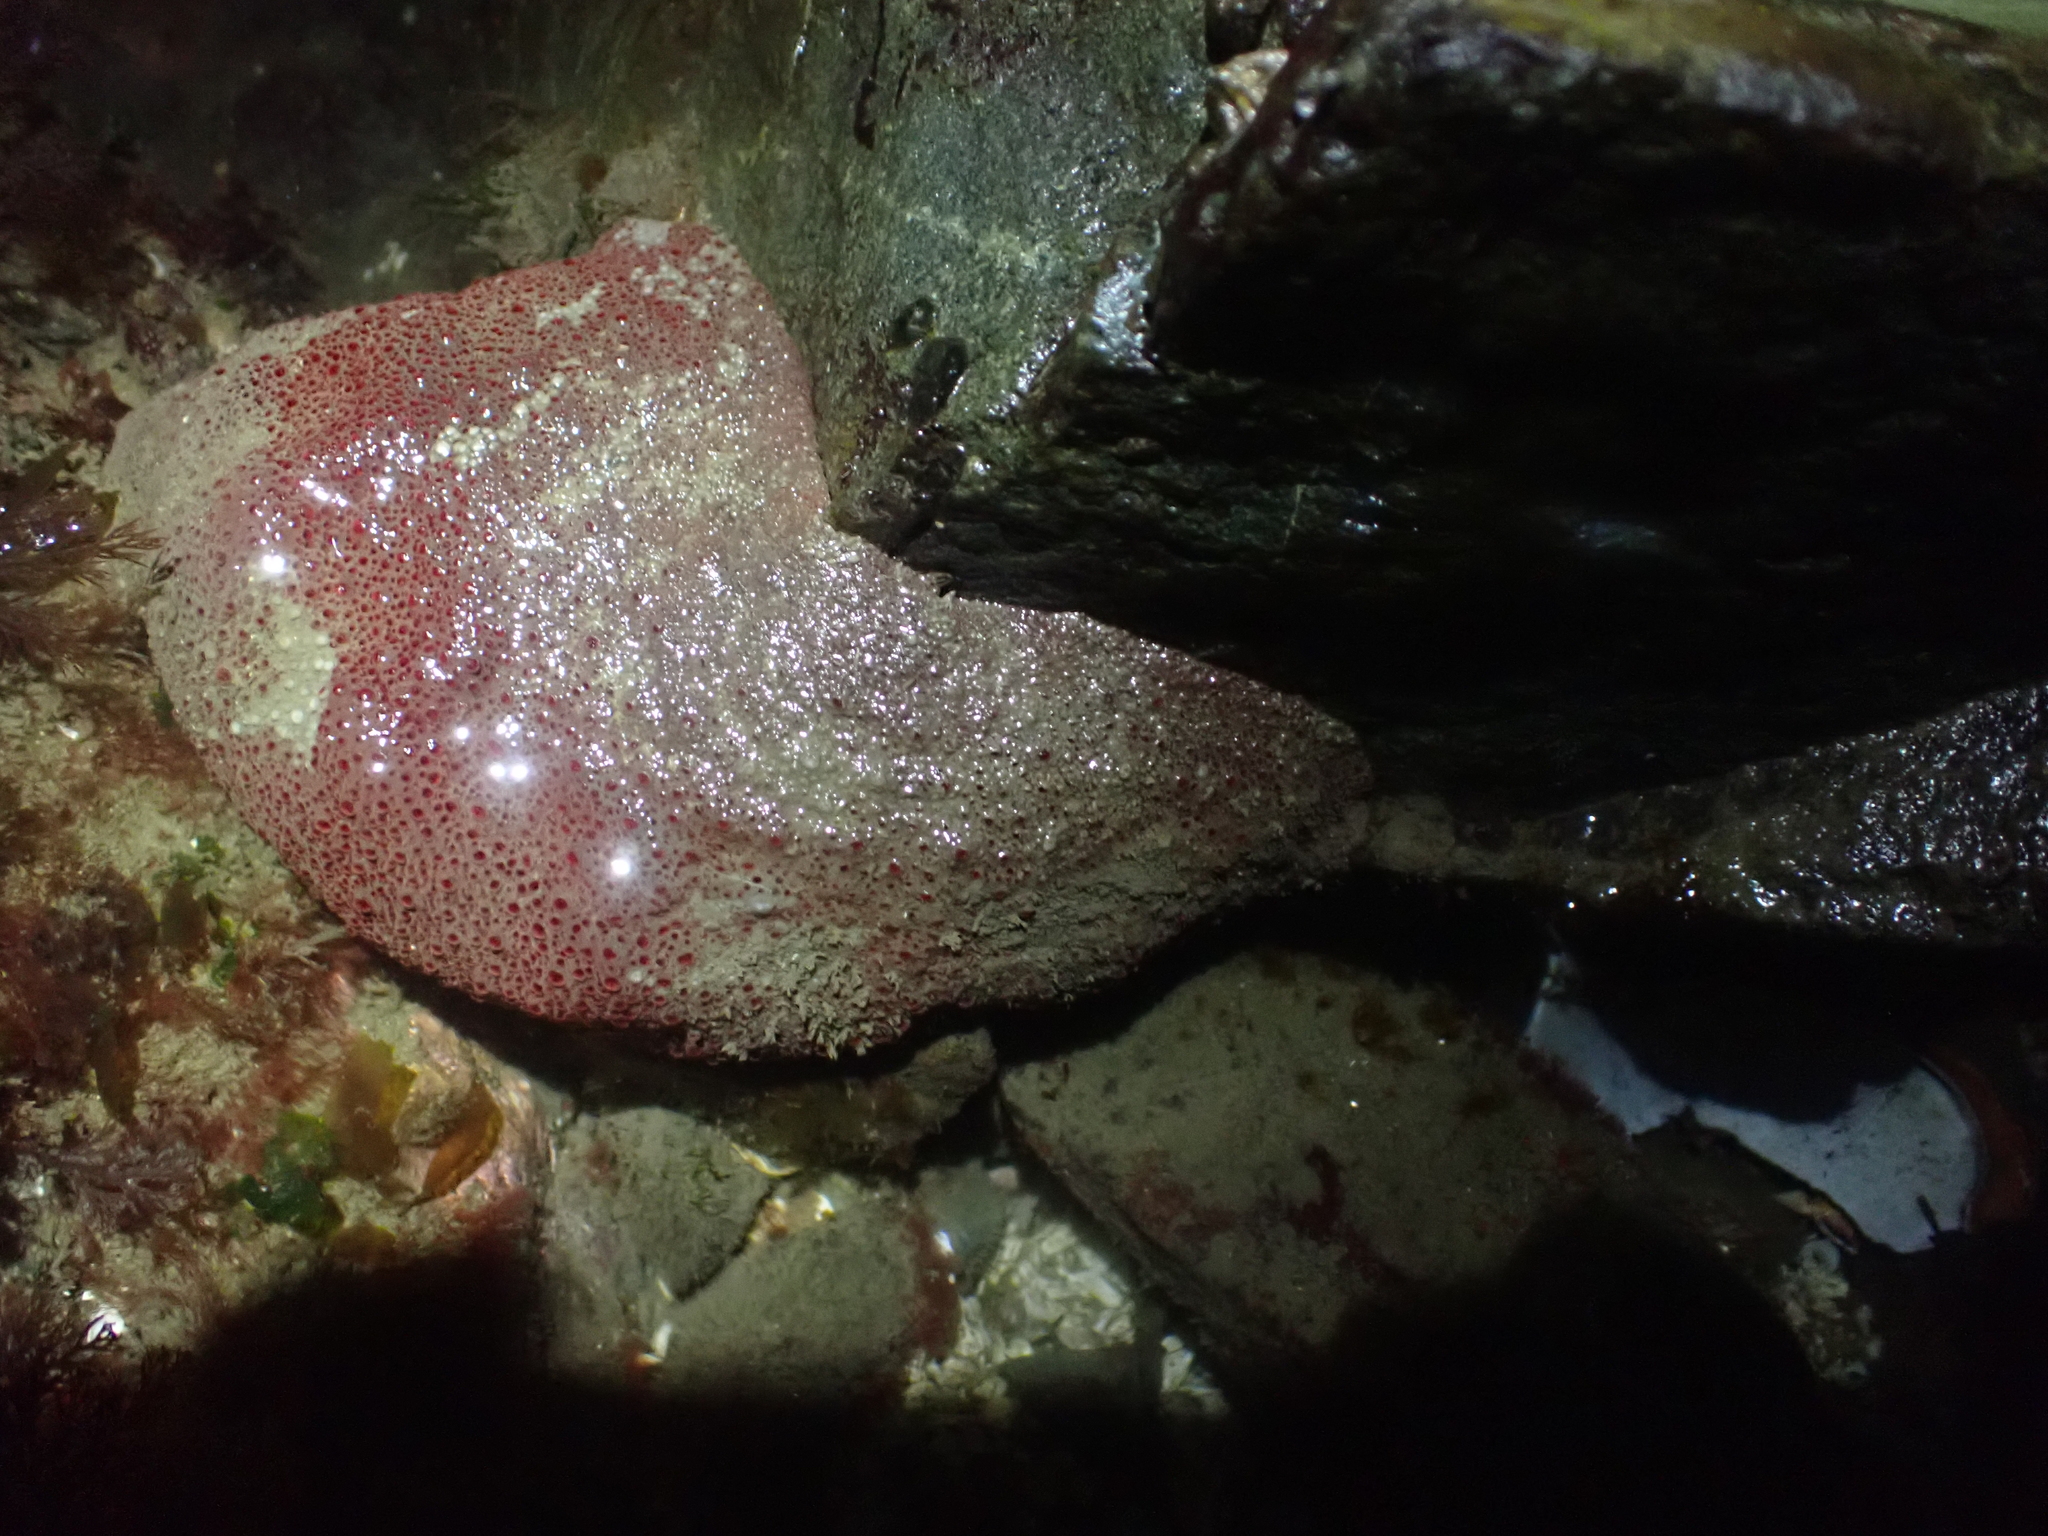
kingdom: Animalia
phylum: Mollusca
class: Polyplacophora
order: Chitonida
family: Acanthochitonidae
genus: Cryptochiton
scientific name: Cryptochiton stelleri
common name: Giant pacific chiton
